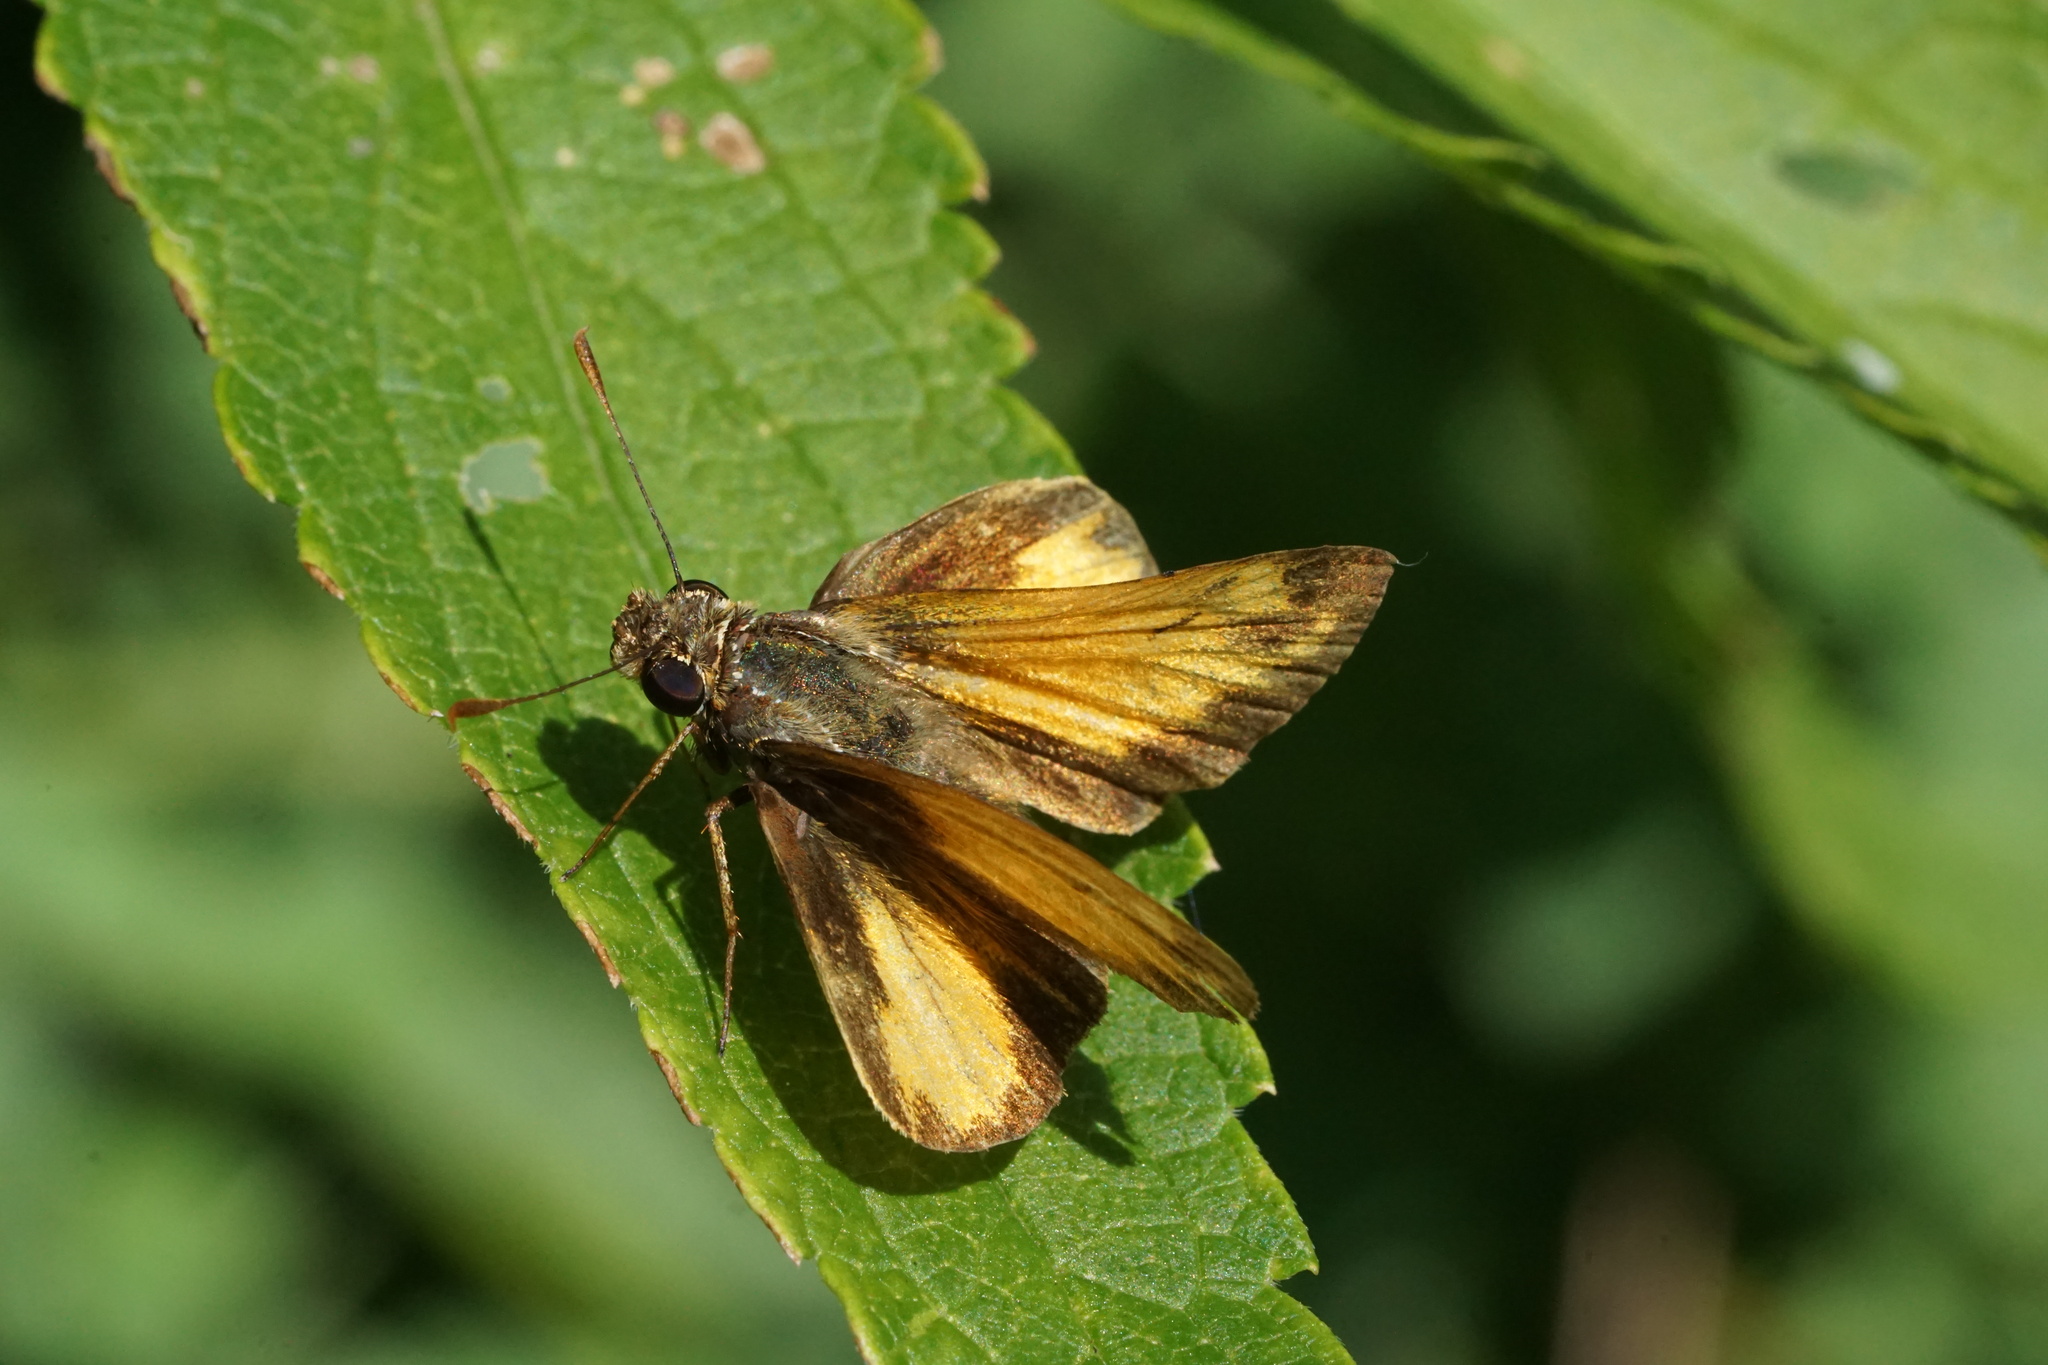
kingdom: Animalia
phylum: Arthropoda
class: Insecta
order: Lepidoptera
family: Hesperiidae
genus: Lon
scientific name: Lon zabulon
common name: Zabulon skipper
